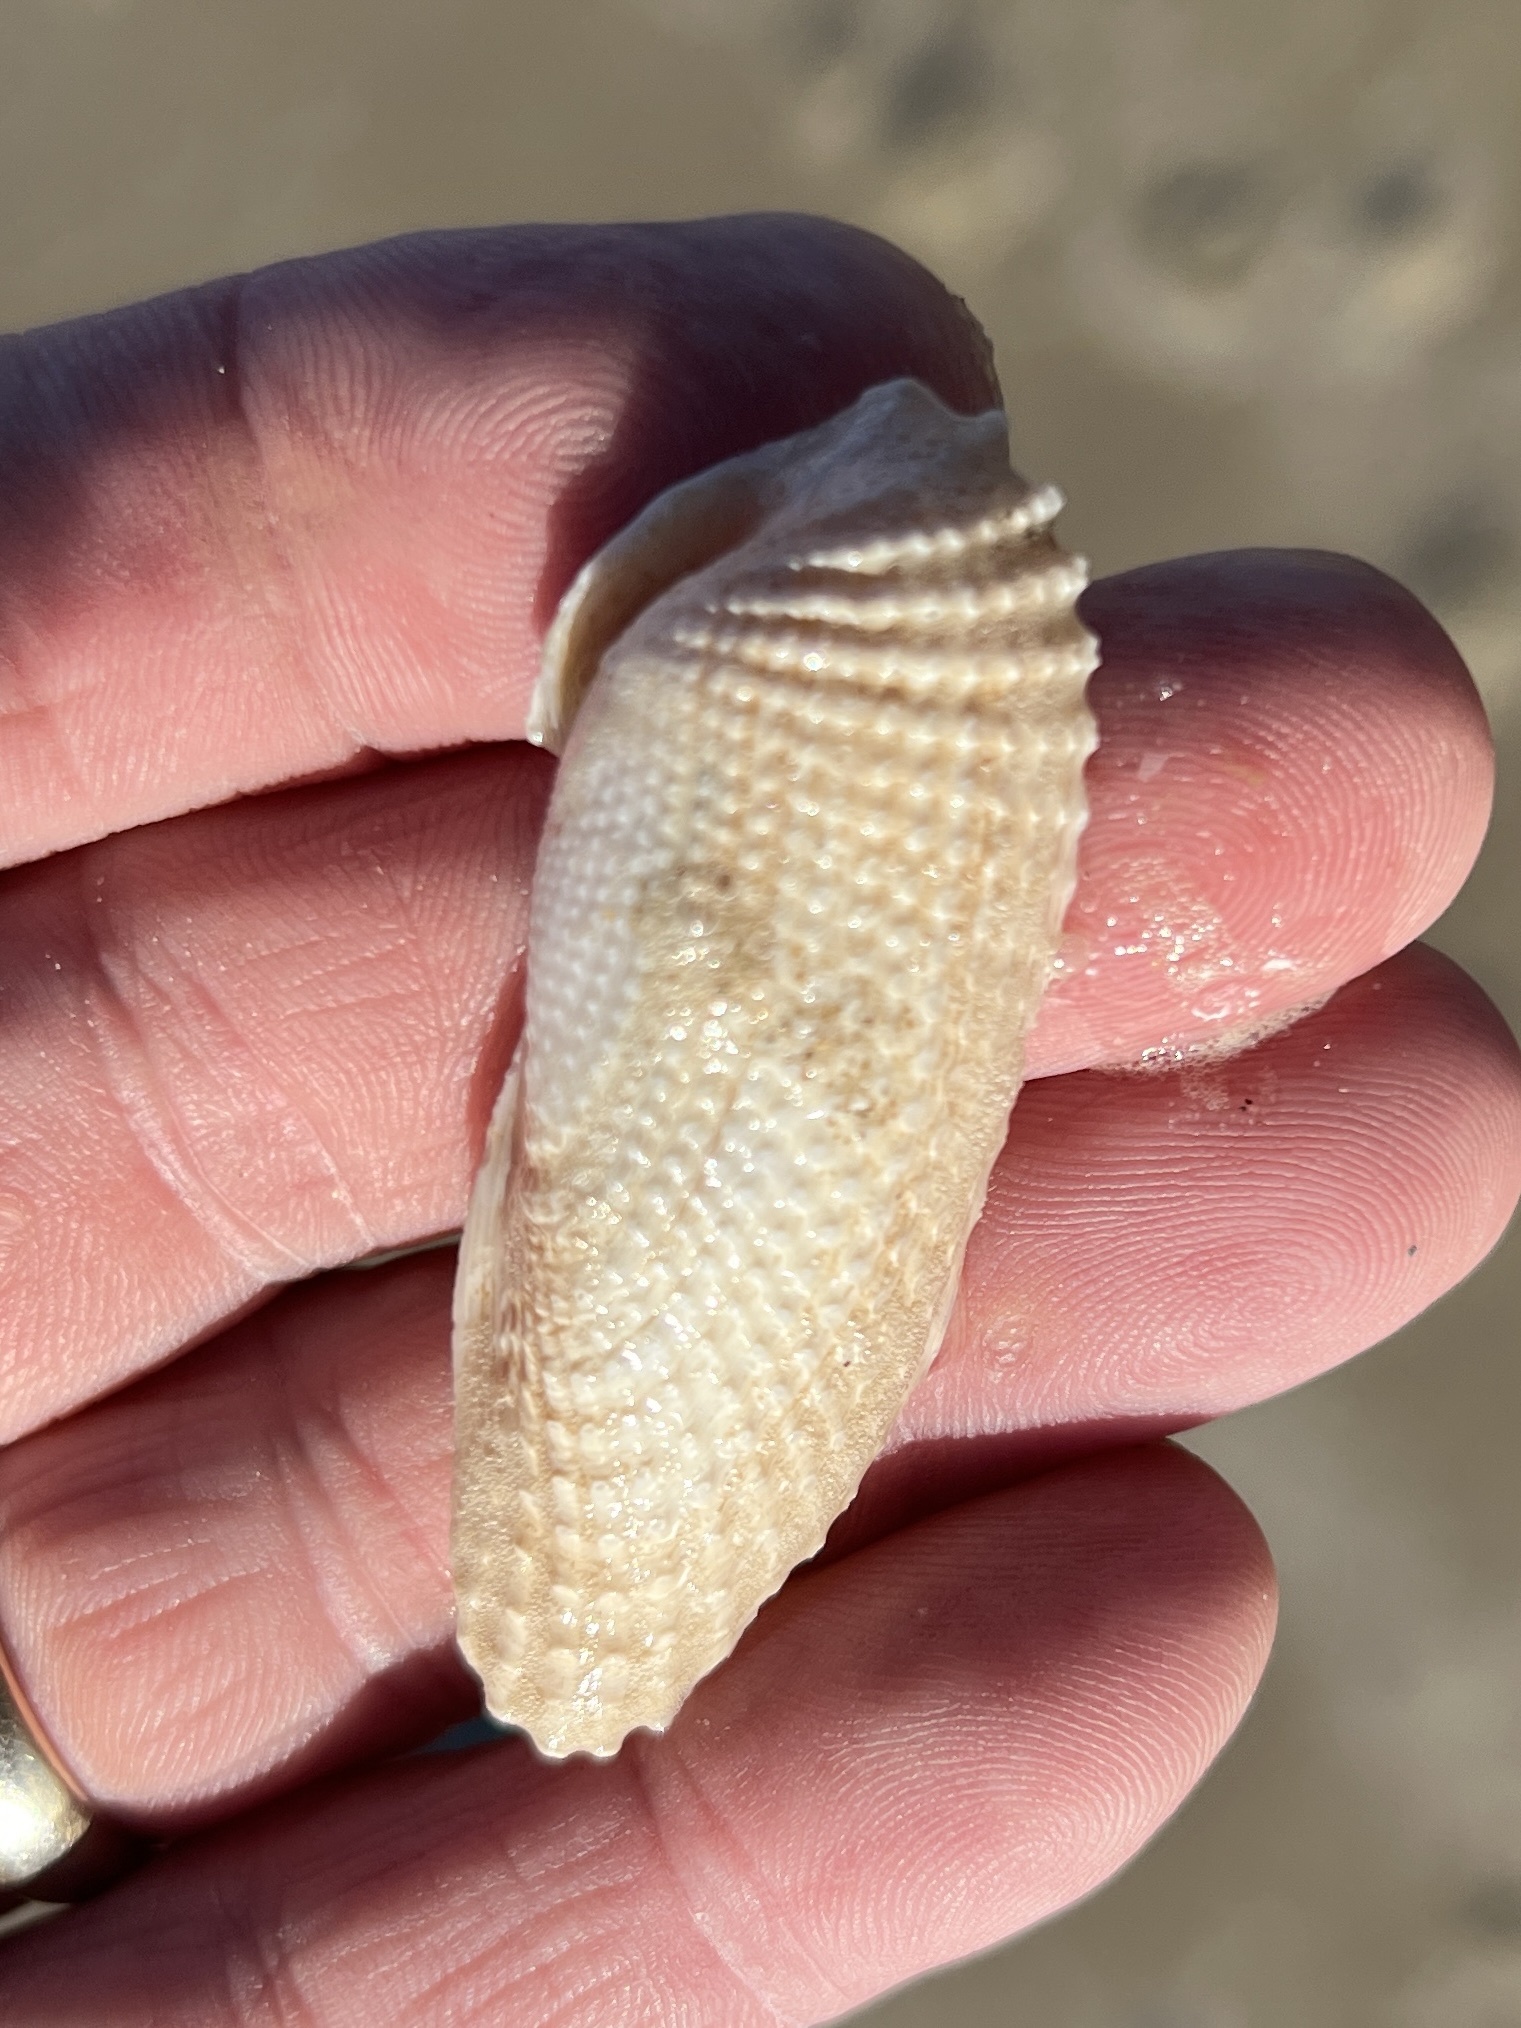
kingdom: Animalia
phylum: Mollusca
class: Bivalvia
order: Myida
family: Pholadidae
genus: Cyrtopleura
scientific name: Cyrtopleura costata
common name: Angel wing
